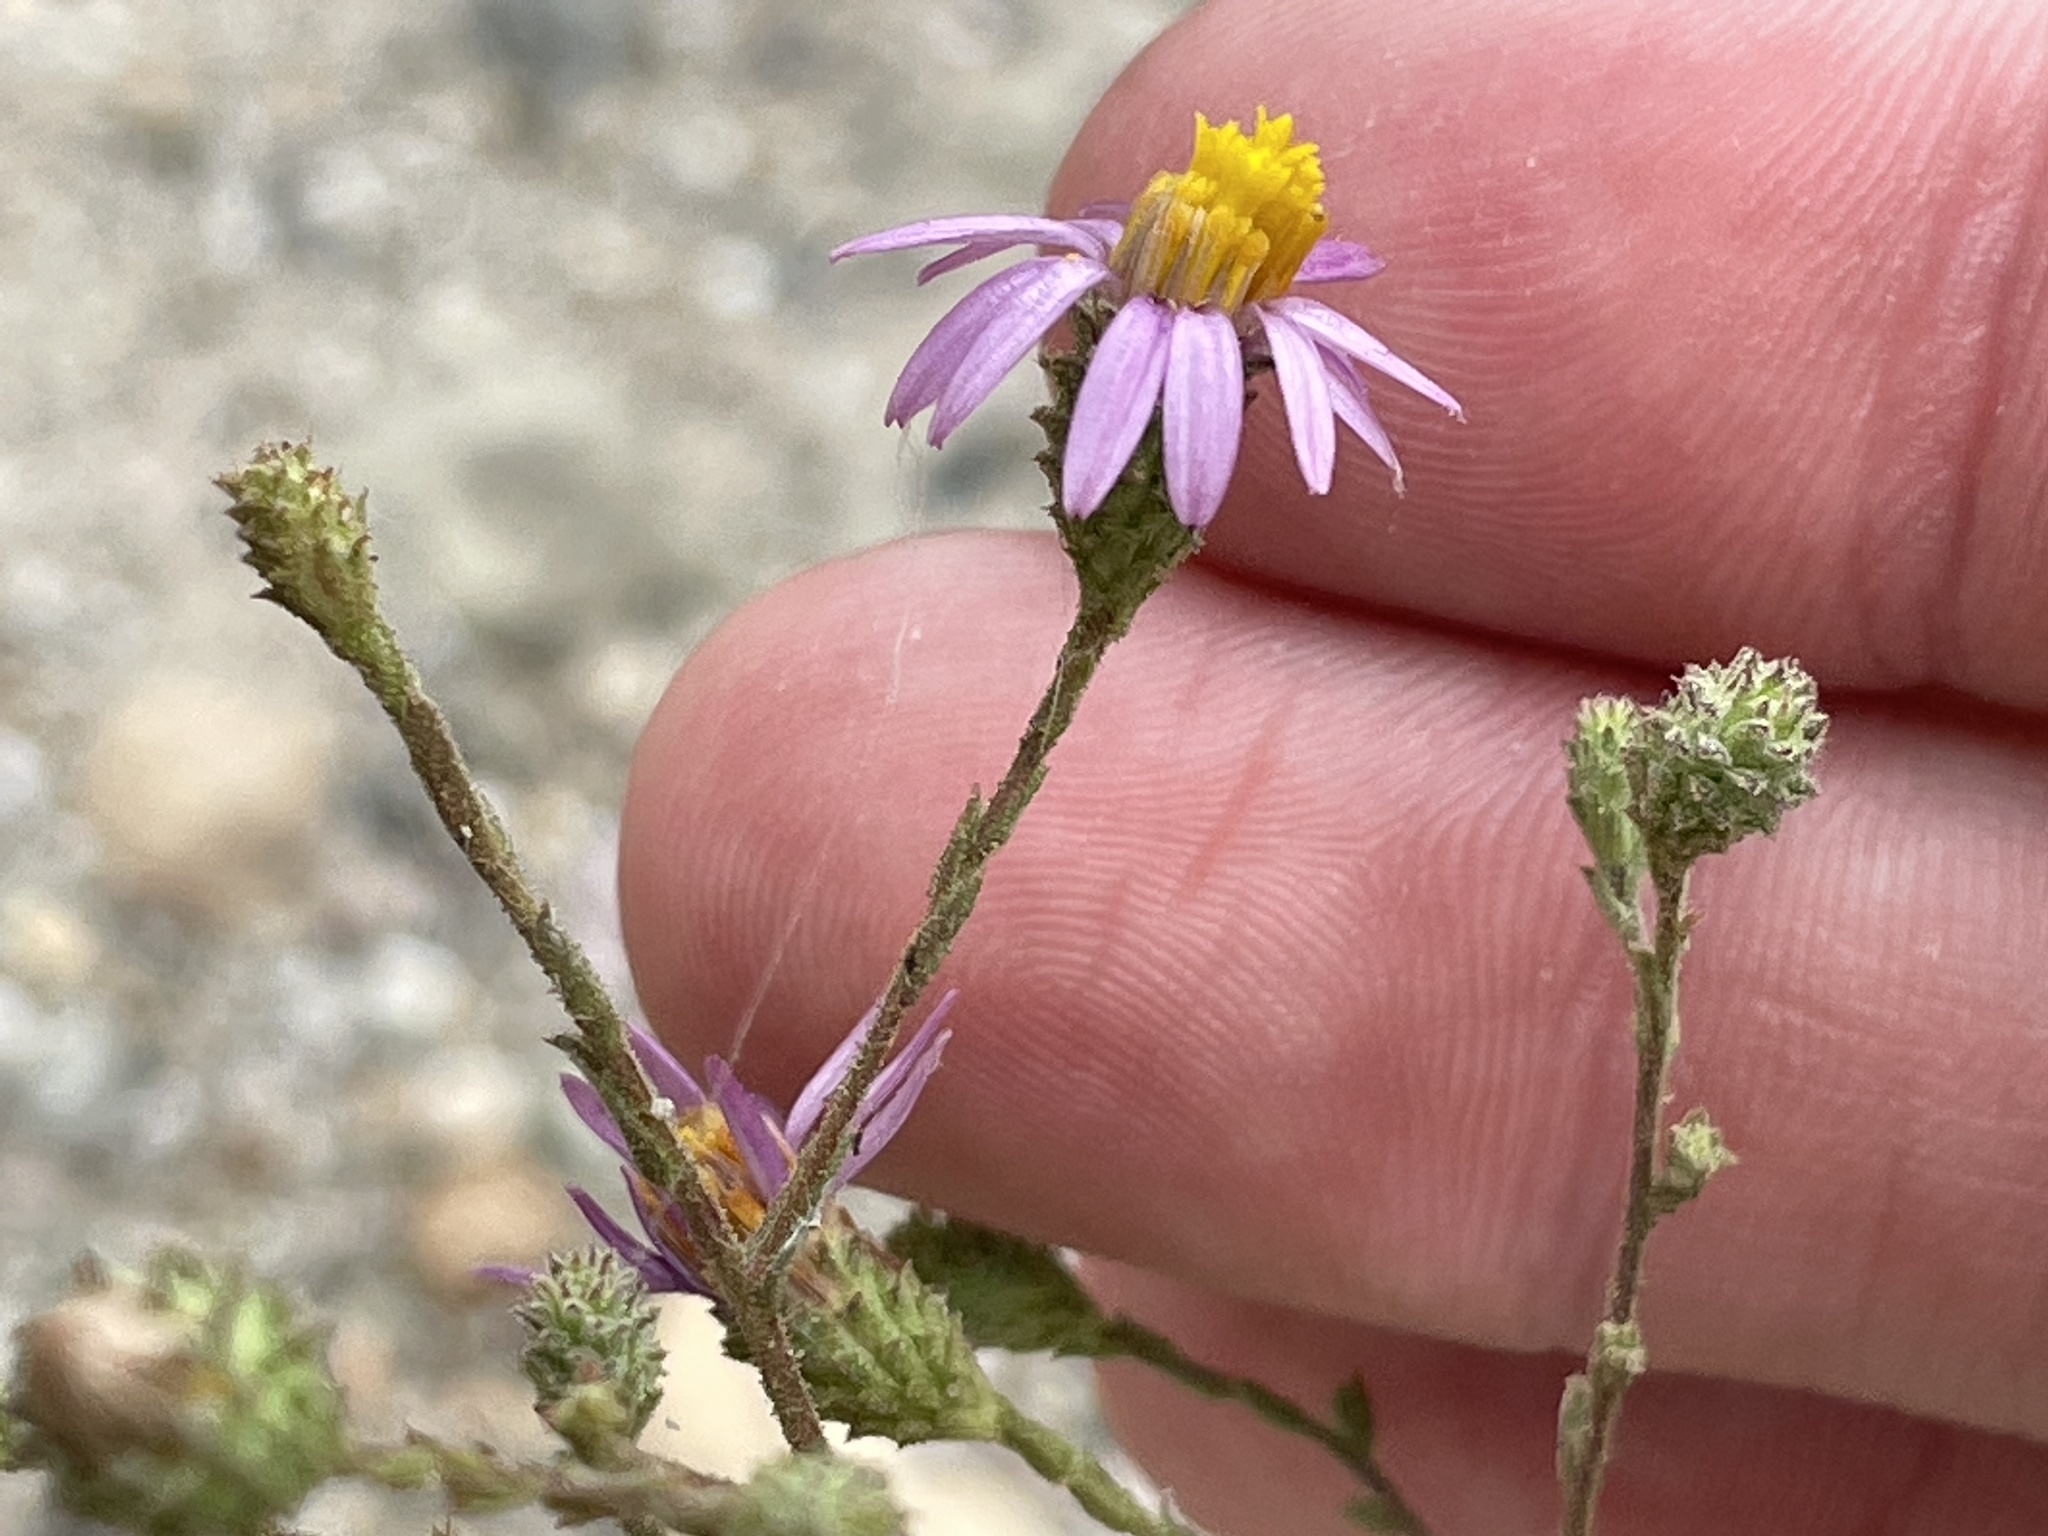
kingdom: Plantae
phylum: Tracheophyta
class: Magnoliopsida
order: Asterales
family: Asteraceae
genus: Corethrogyne
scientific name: Corethrogyne filaginifolia
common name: Sand-aster
